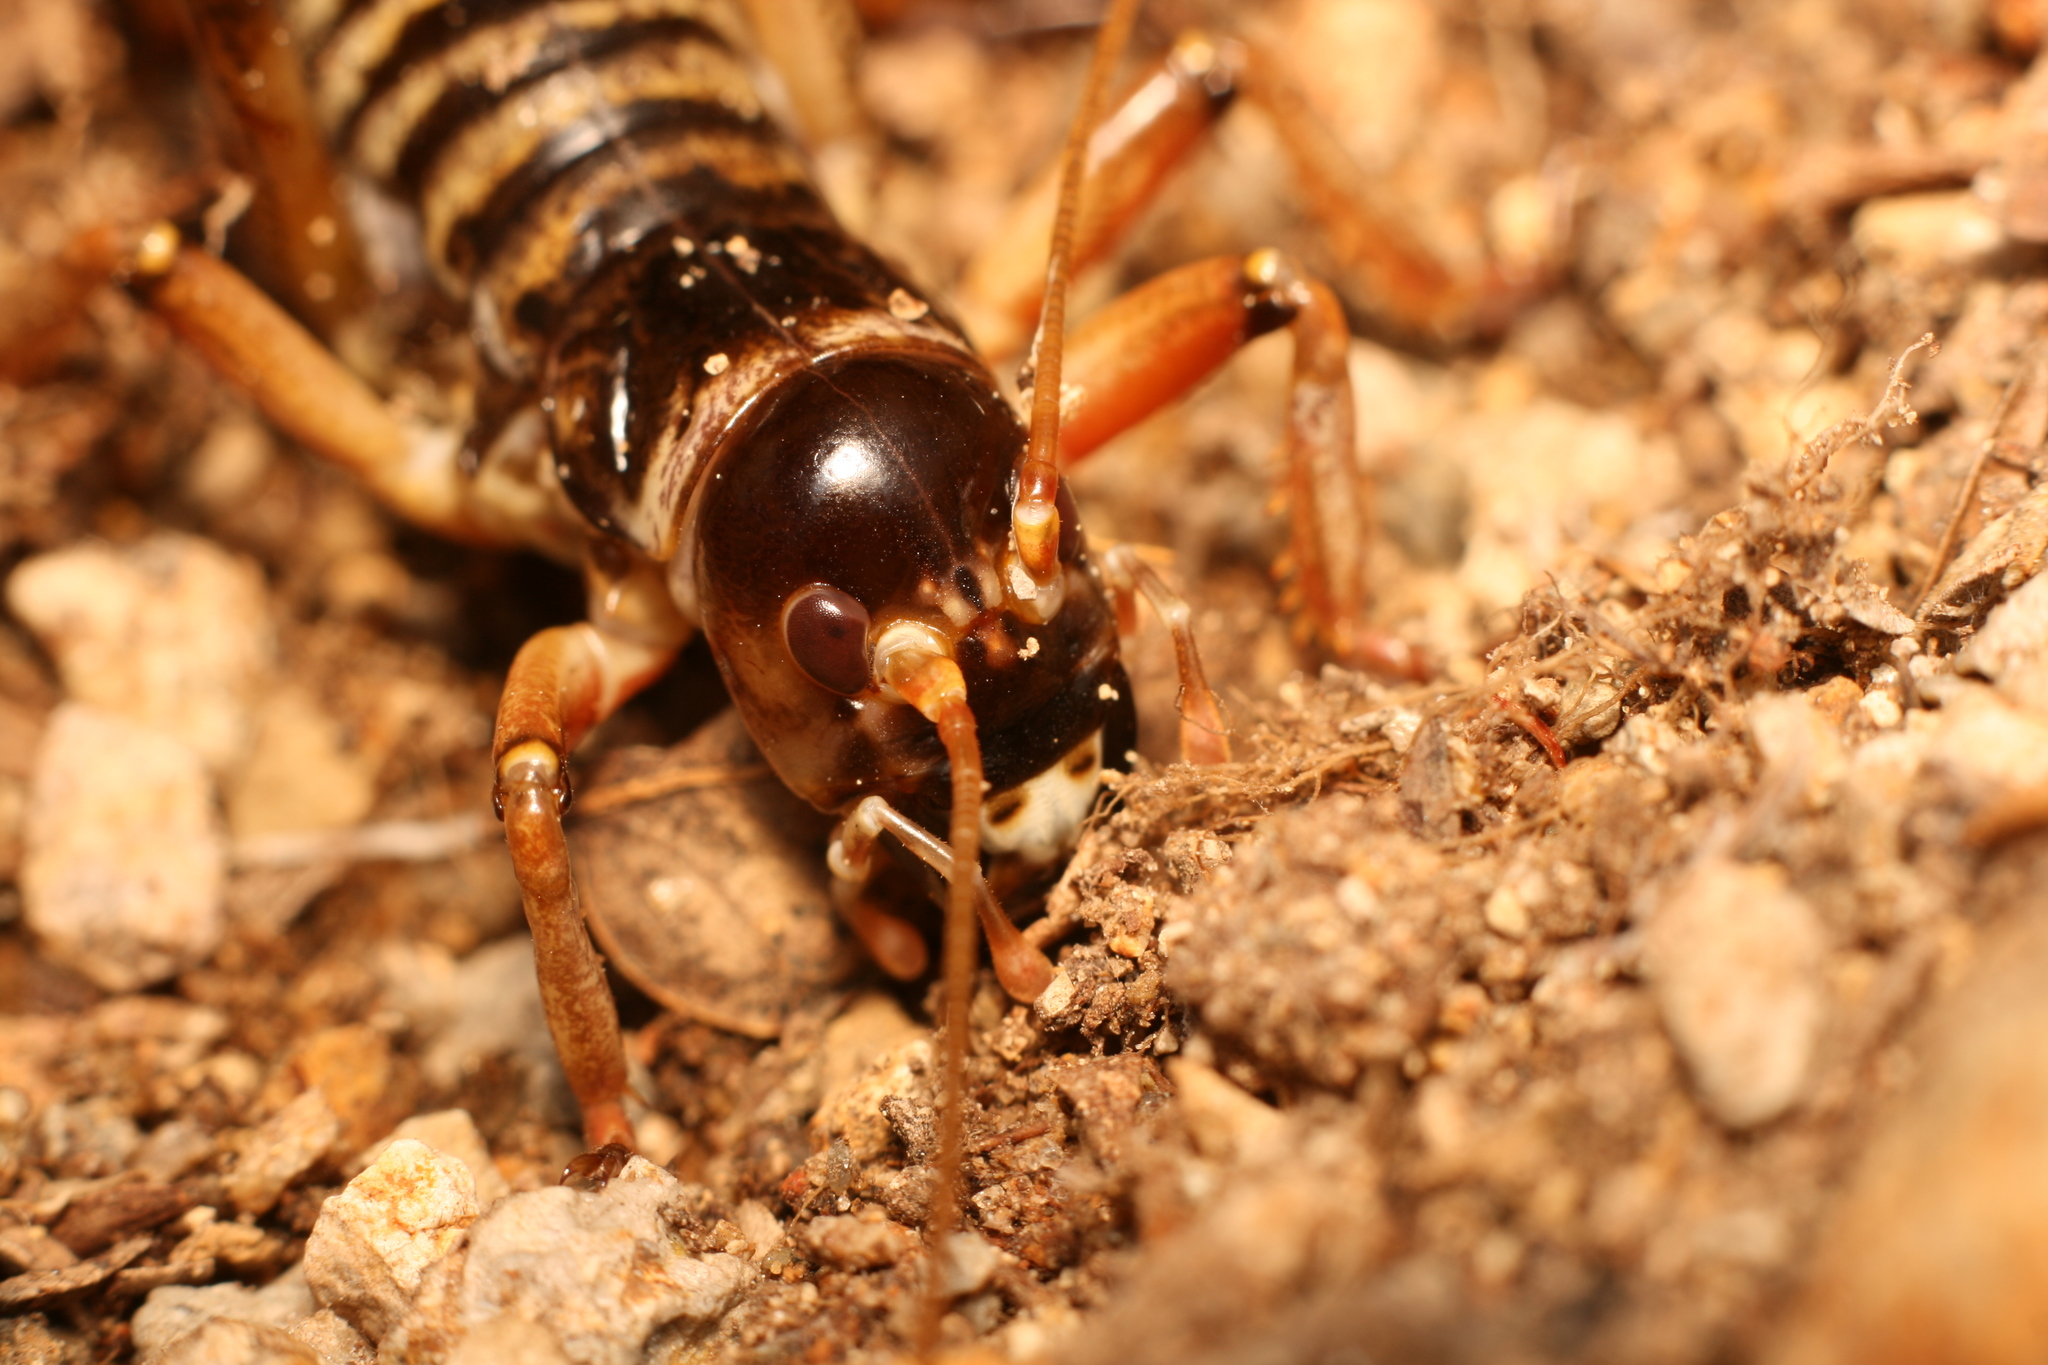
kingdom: Animalia
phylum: Arthropoda
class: Insecta
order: Orthoptera
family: Anostostomatidae
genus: Hemideina
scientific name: Hemideina maori
